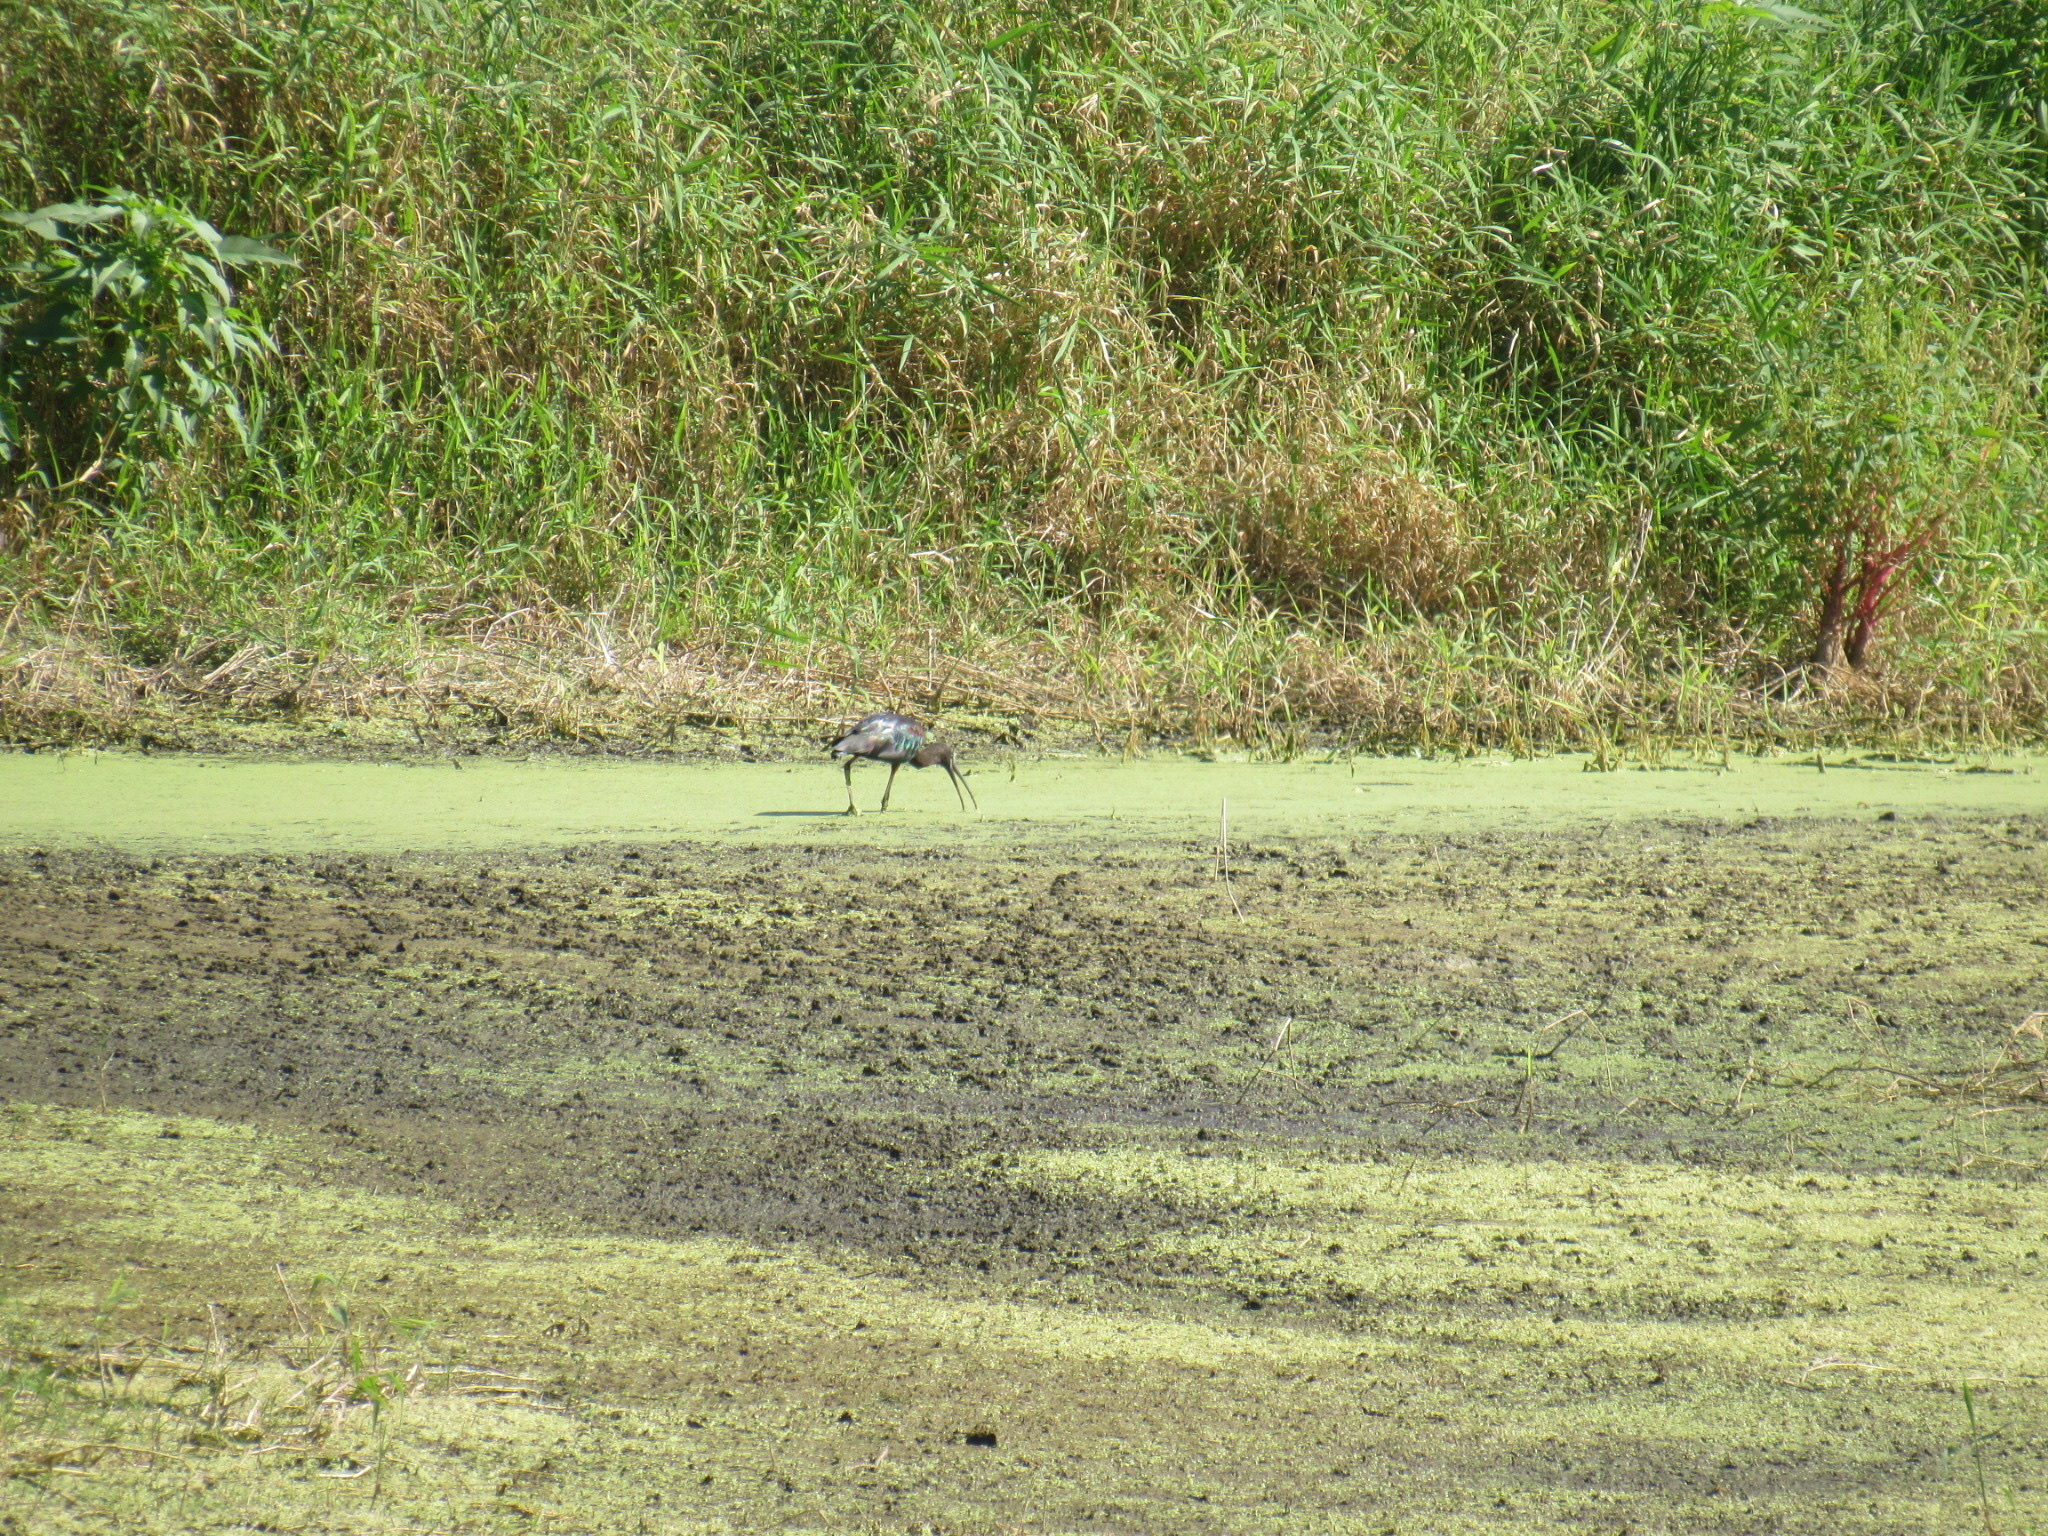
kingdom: Animalia
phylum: Chordata
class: Aves
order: Pelecaniformes
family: Threskiornithidae
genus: Plegadis
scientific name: Plegadis falcinellus
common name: Glossy ibis
